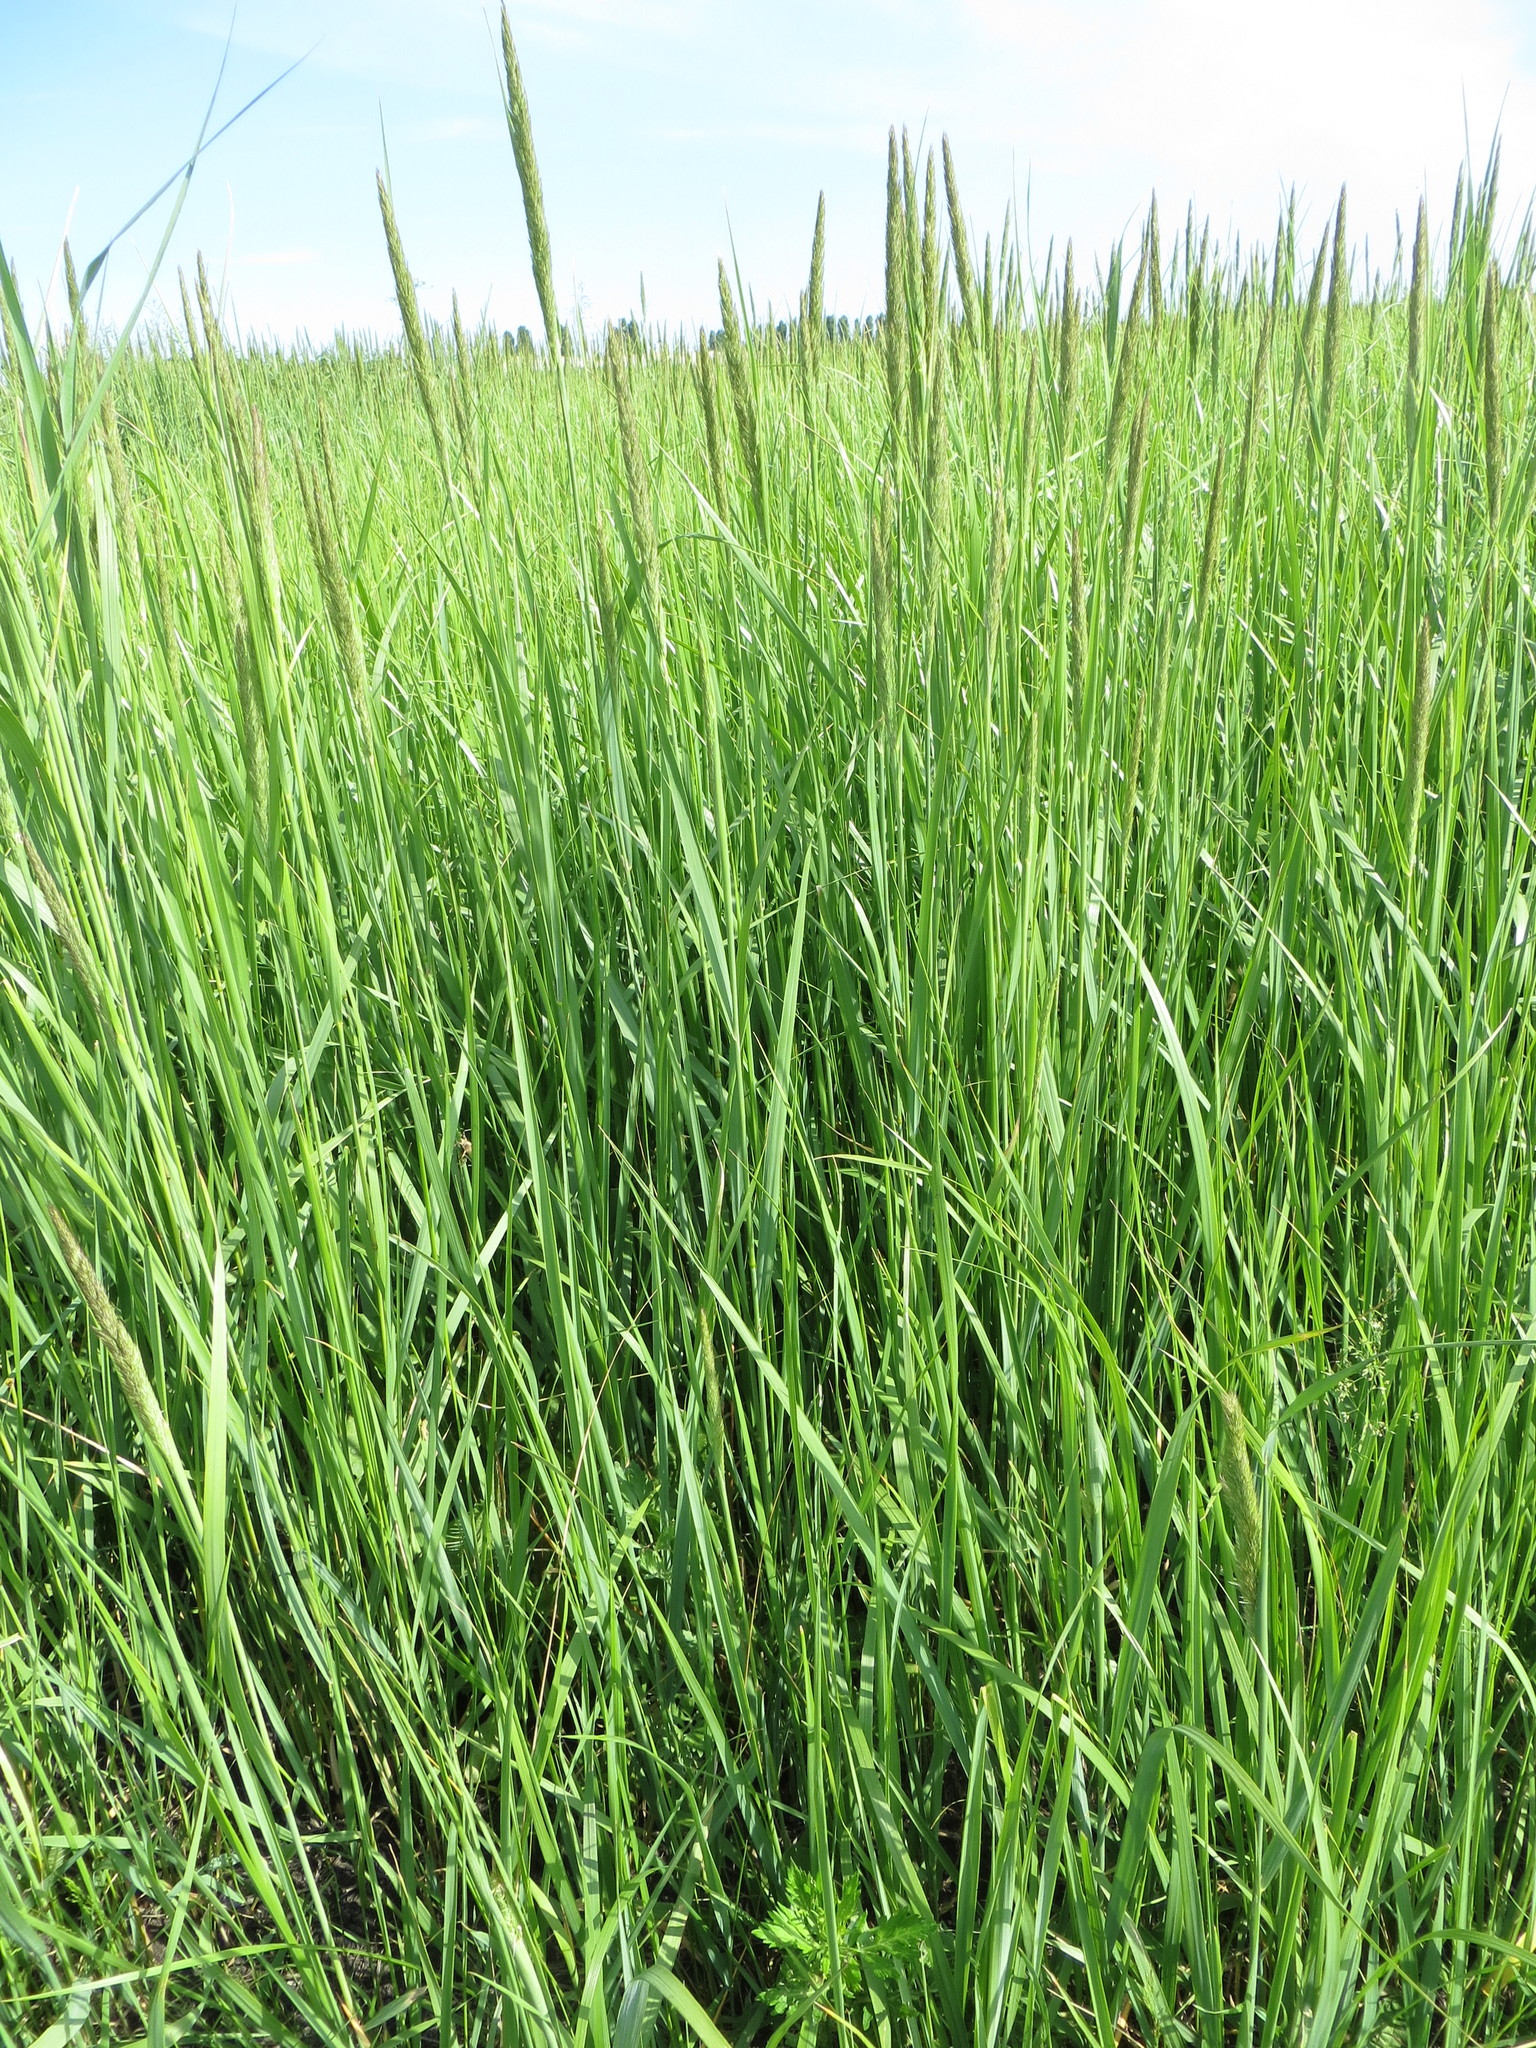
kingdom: Plantae
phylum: Tracheophyta
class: Liliopsida
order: Poales
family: Poaceae
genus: Calamagrostis
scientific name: Calamagrostis epigejos
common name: Wood small-reed
